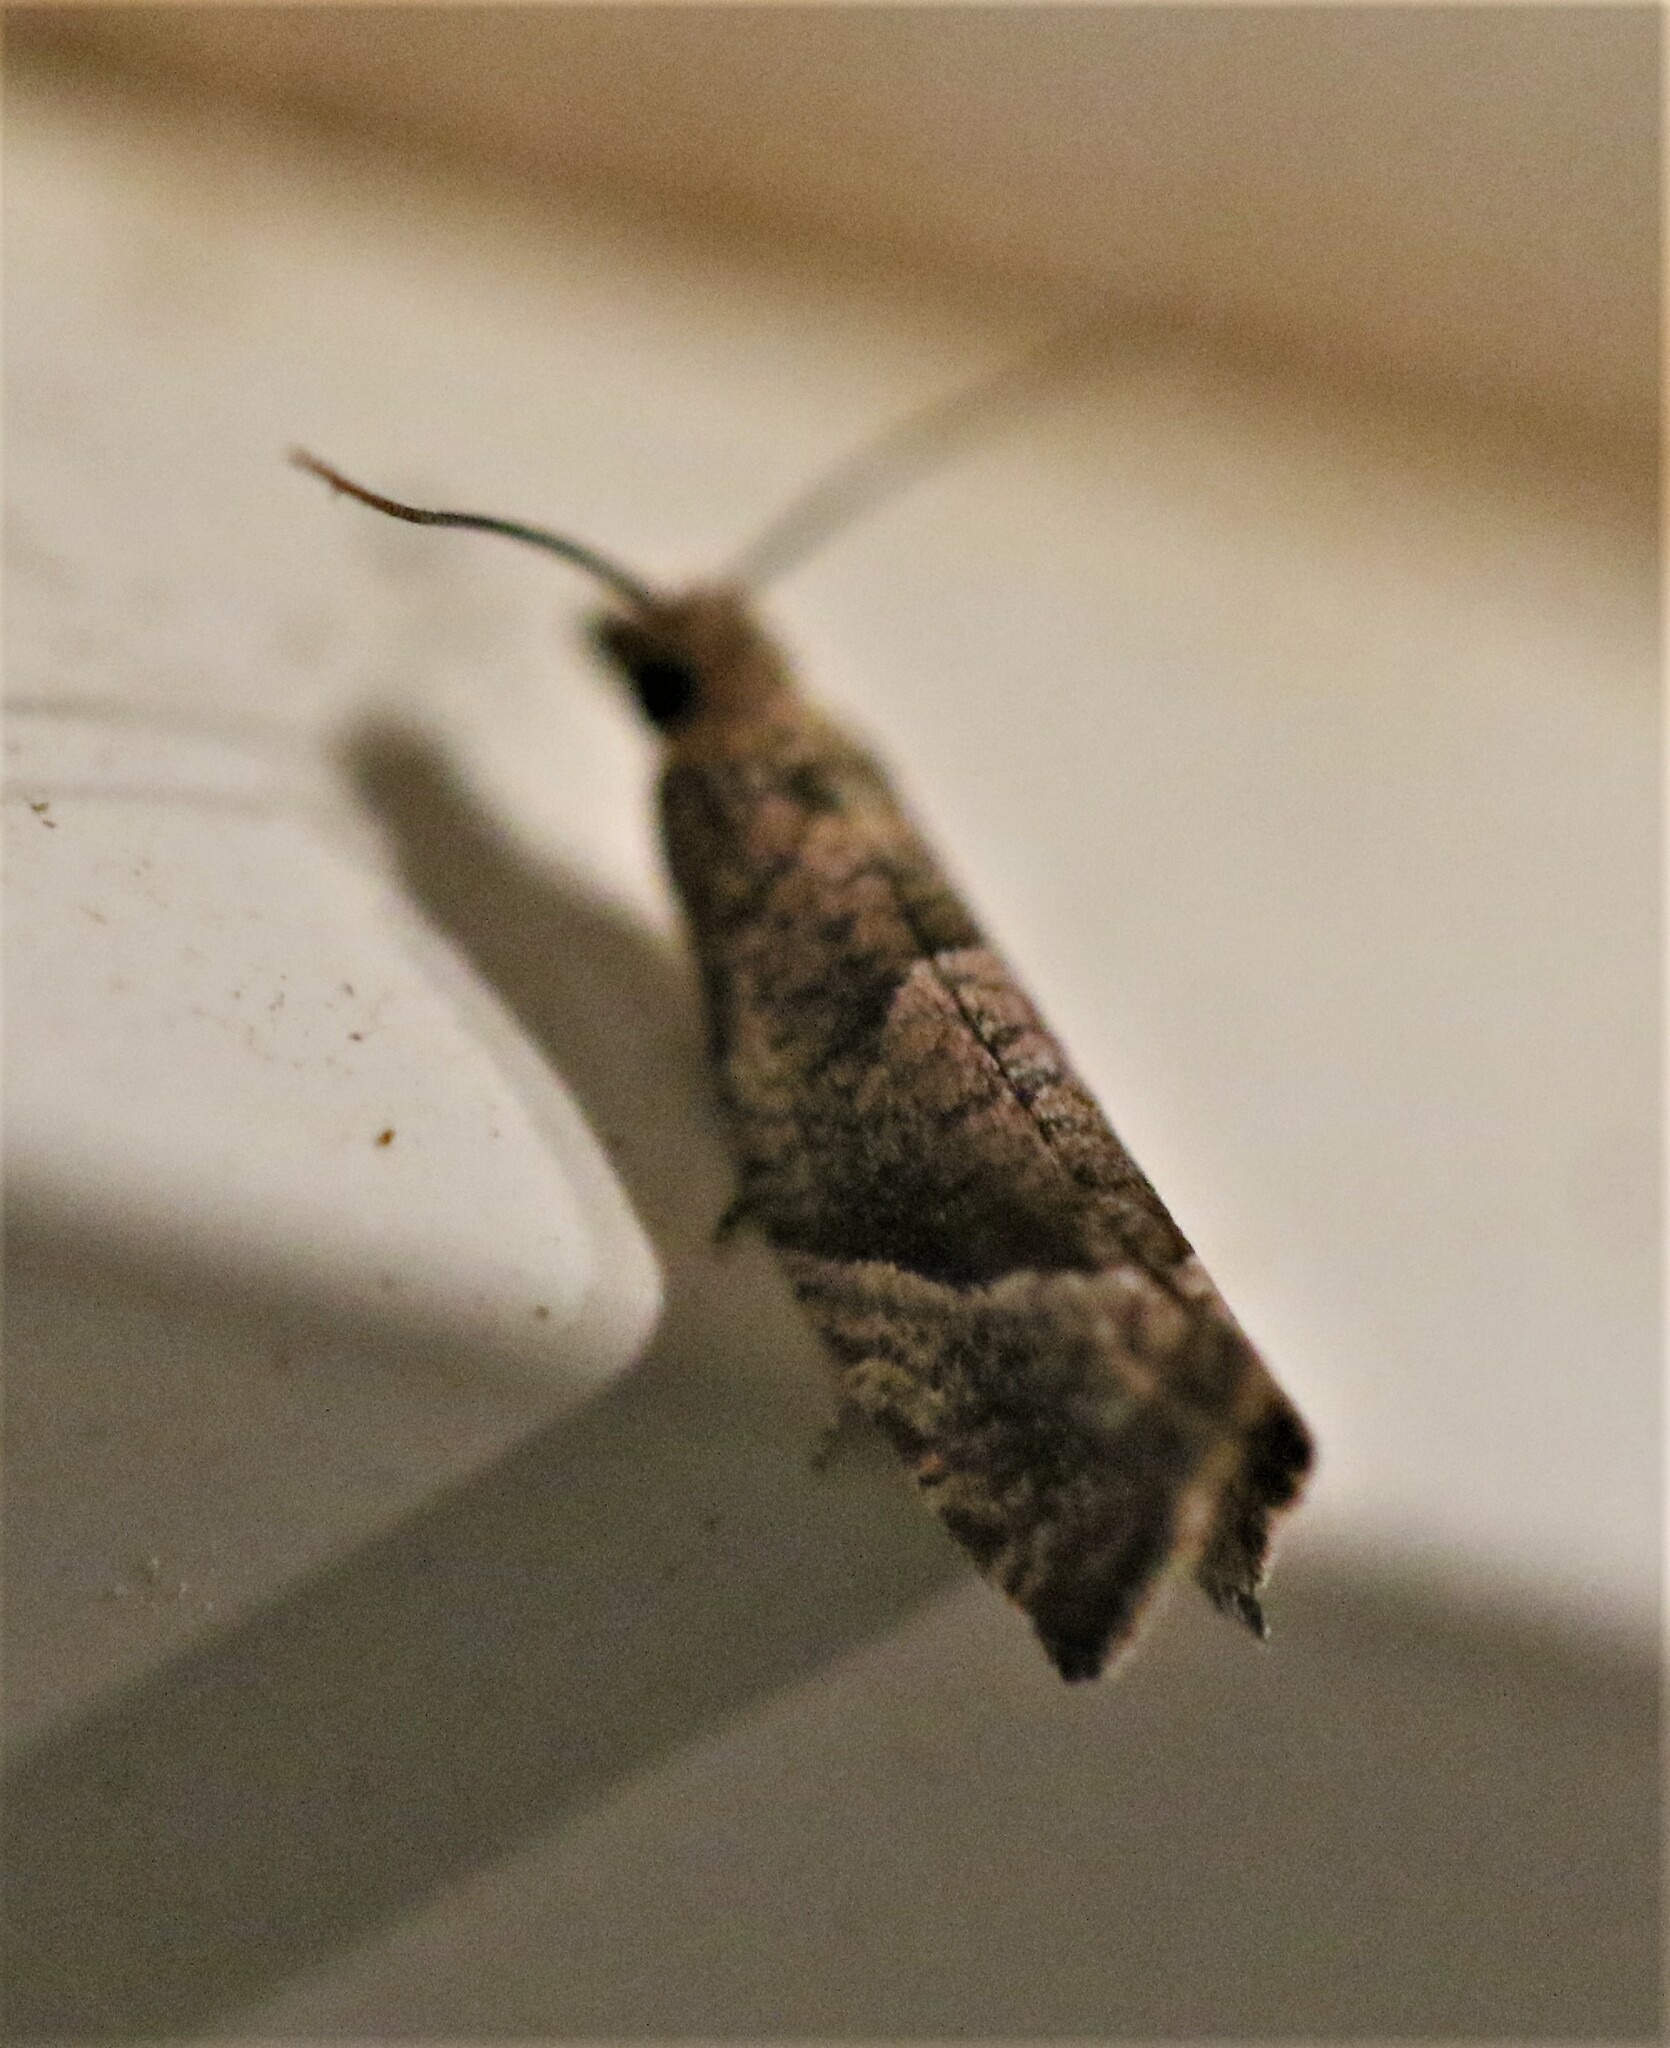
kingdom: Animalia
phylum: Arthropoda
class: Insecta
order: Lepidoptera
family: Tortricidae
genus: Pelochrista
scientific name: Pelochrista derelicta
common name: Derelict pelochrista moth
